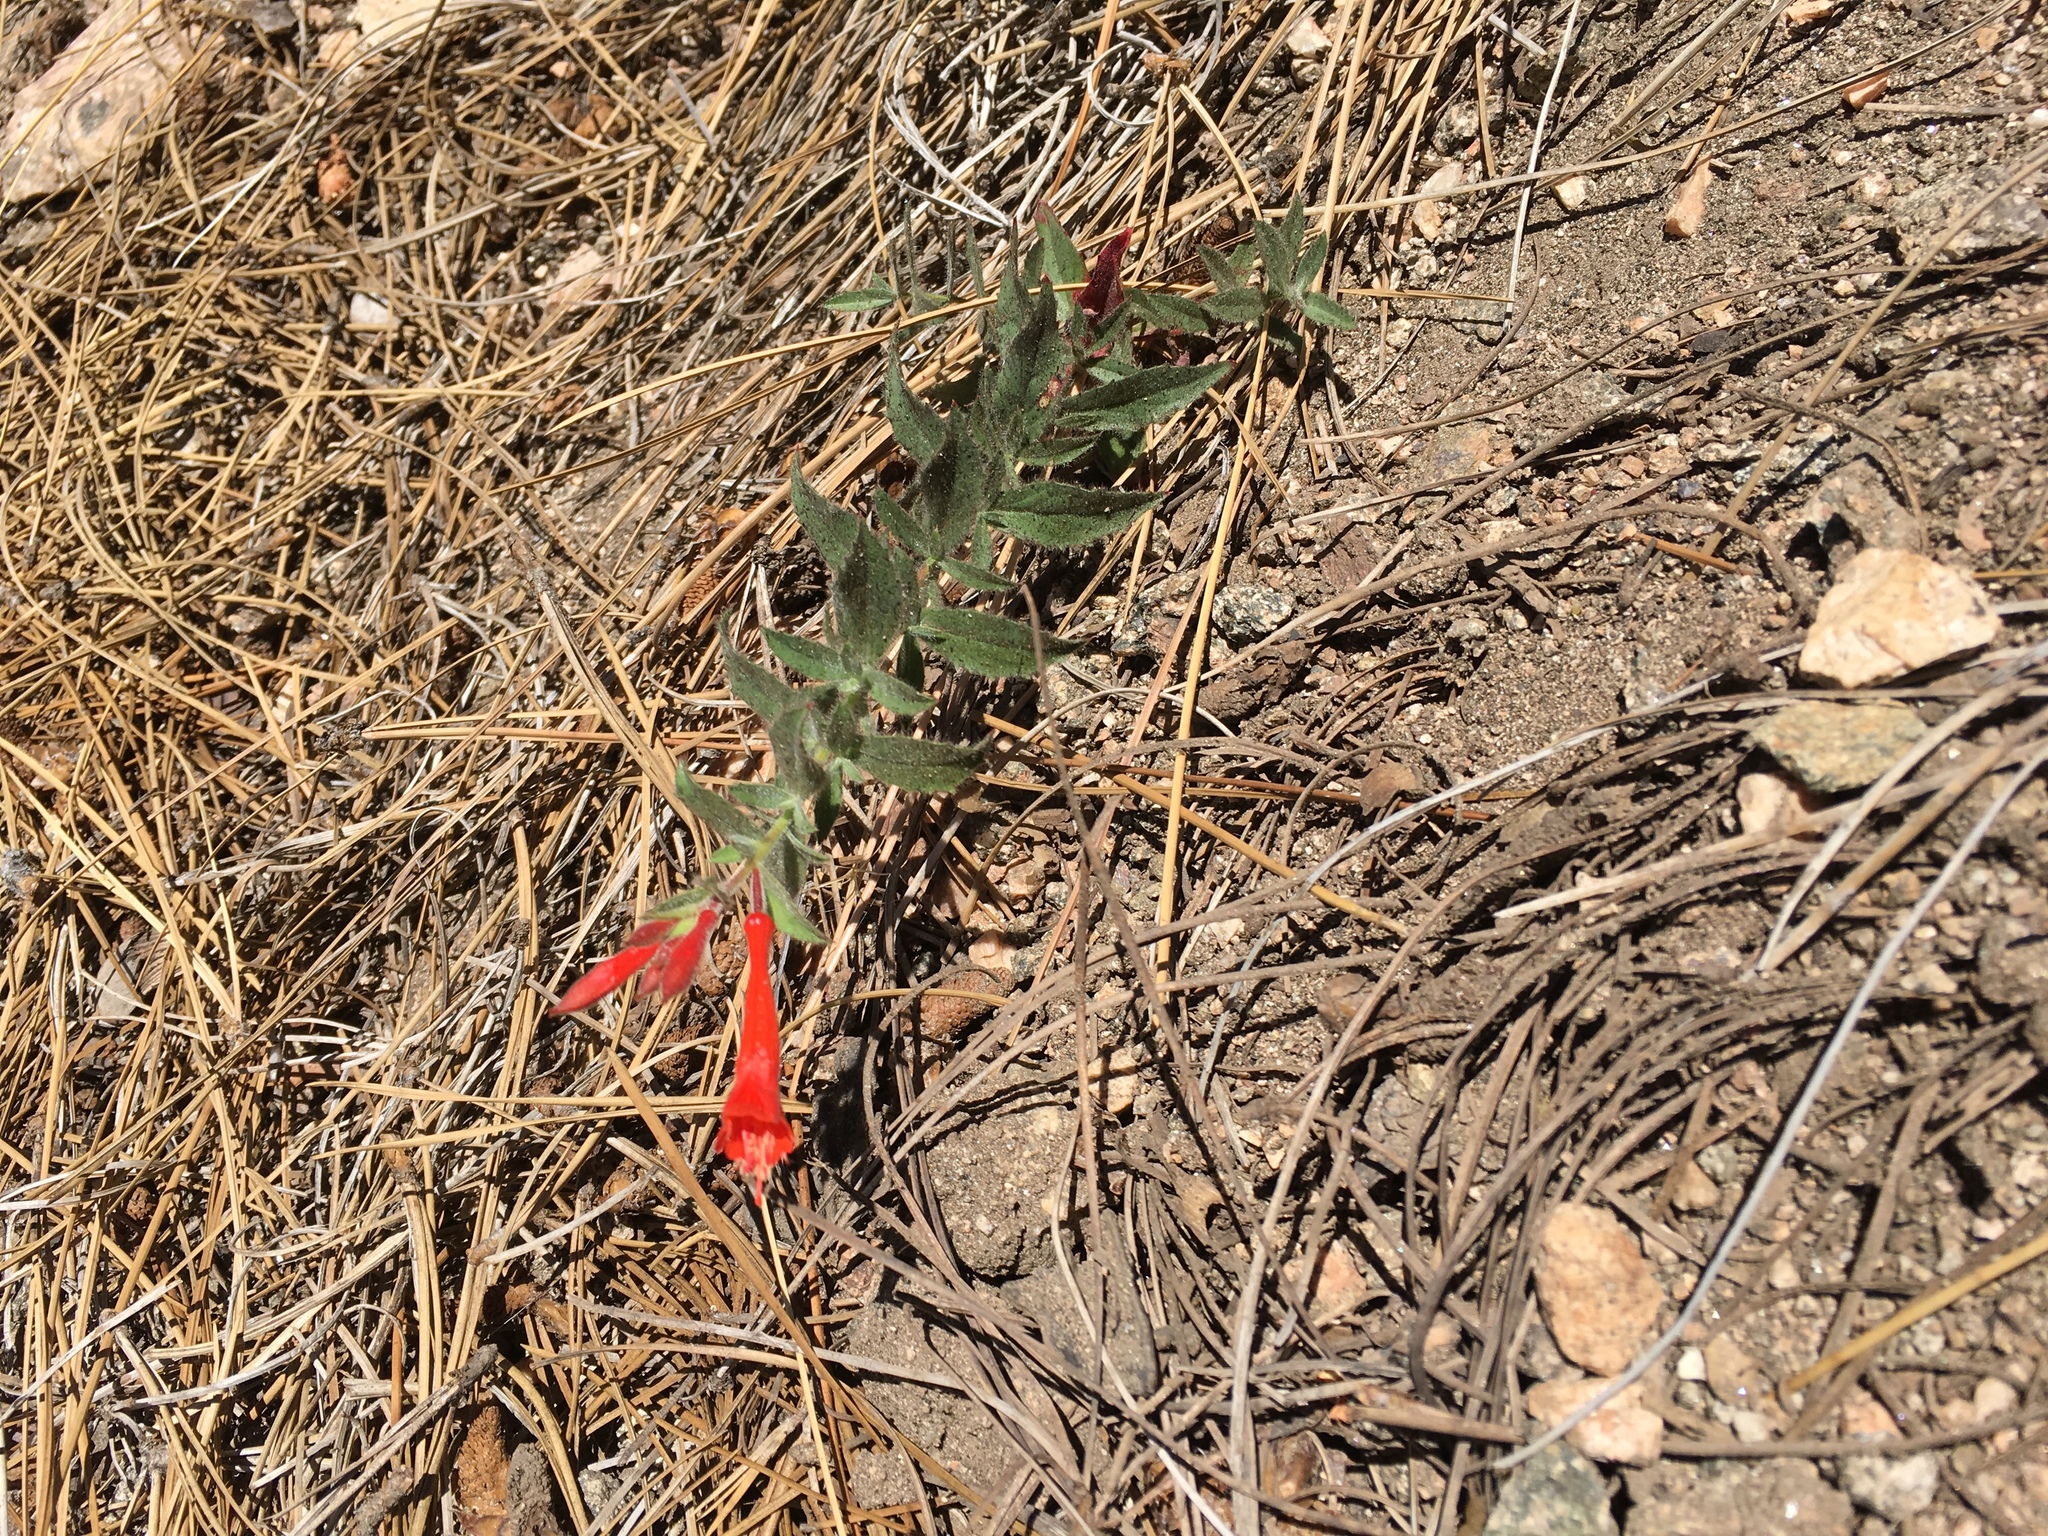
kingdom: Plantae
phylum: Tracheophyta
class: Magnoliopsida
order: Myrtales
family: Onagraceae
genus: Epilobium
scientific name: Epilobium canum
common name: California-fuchsia
